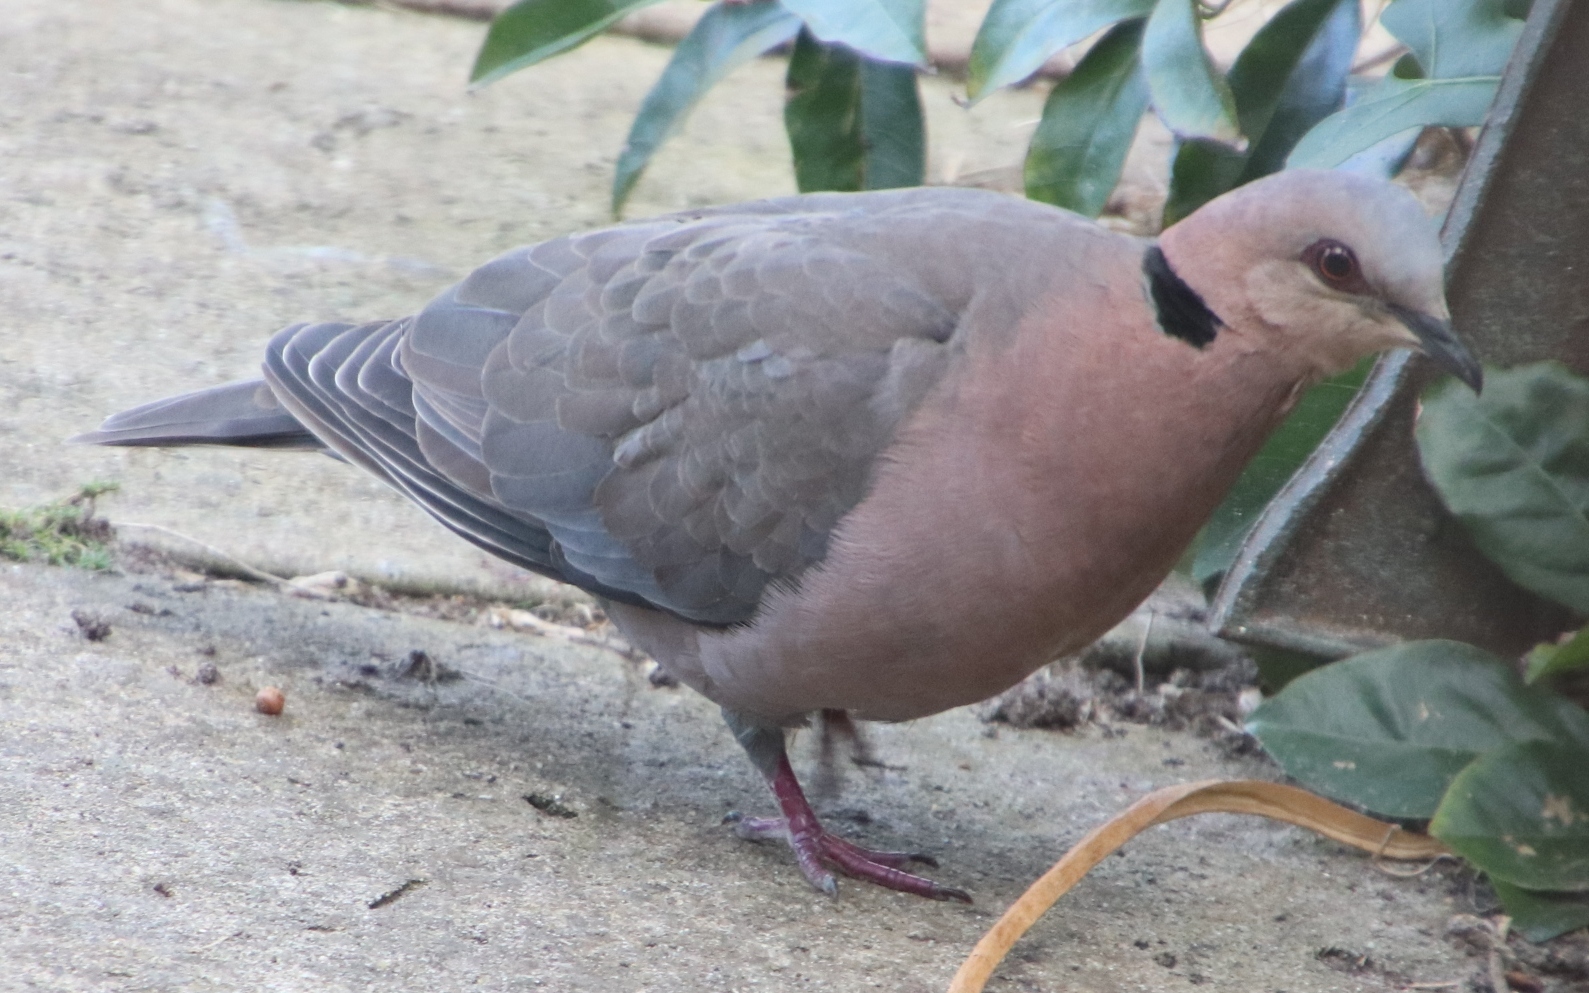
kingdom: Animalia
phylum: Chordata
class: Aves
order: Columbiformes
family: Columbidae
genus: Streptopelia
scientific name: Streptopelia semitorquata
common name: Red-eyed dove
